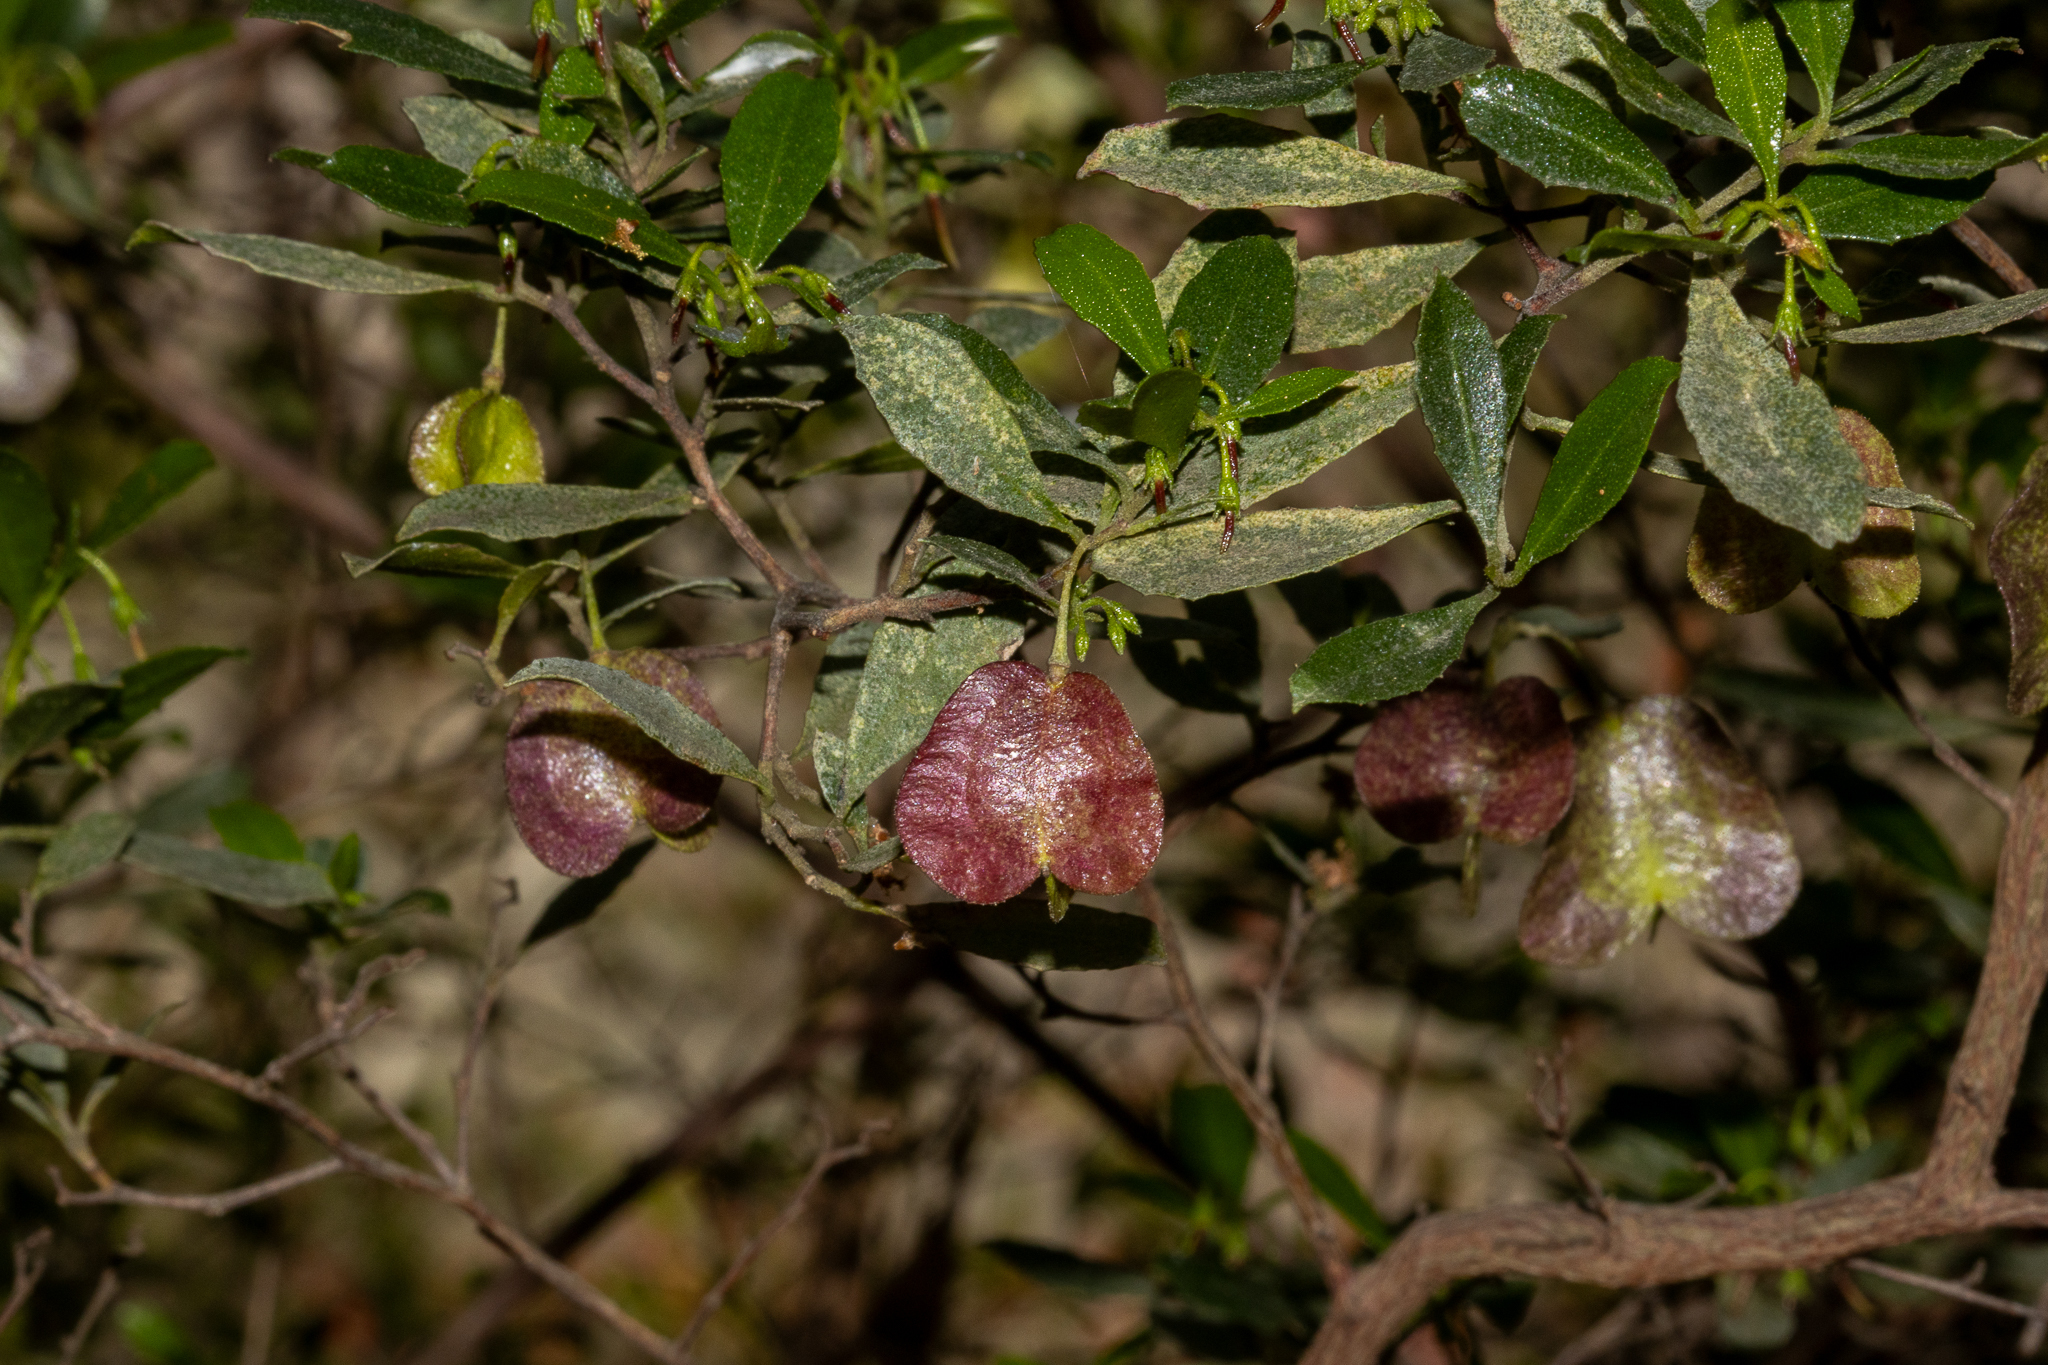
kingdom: Plantae
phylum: Tracheophyta
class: Magnoliopsida
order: Sapindales
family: Sapindaceae
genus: Dodonaea
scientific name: Dodonaea viscosa
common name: Hopbush
